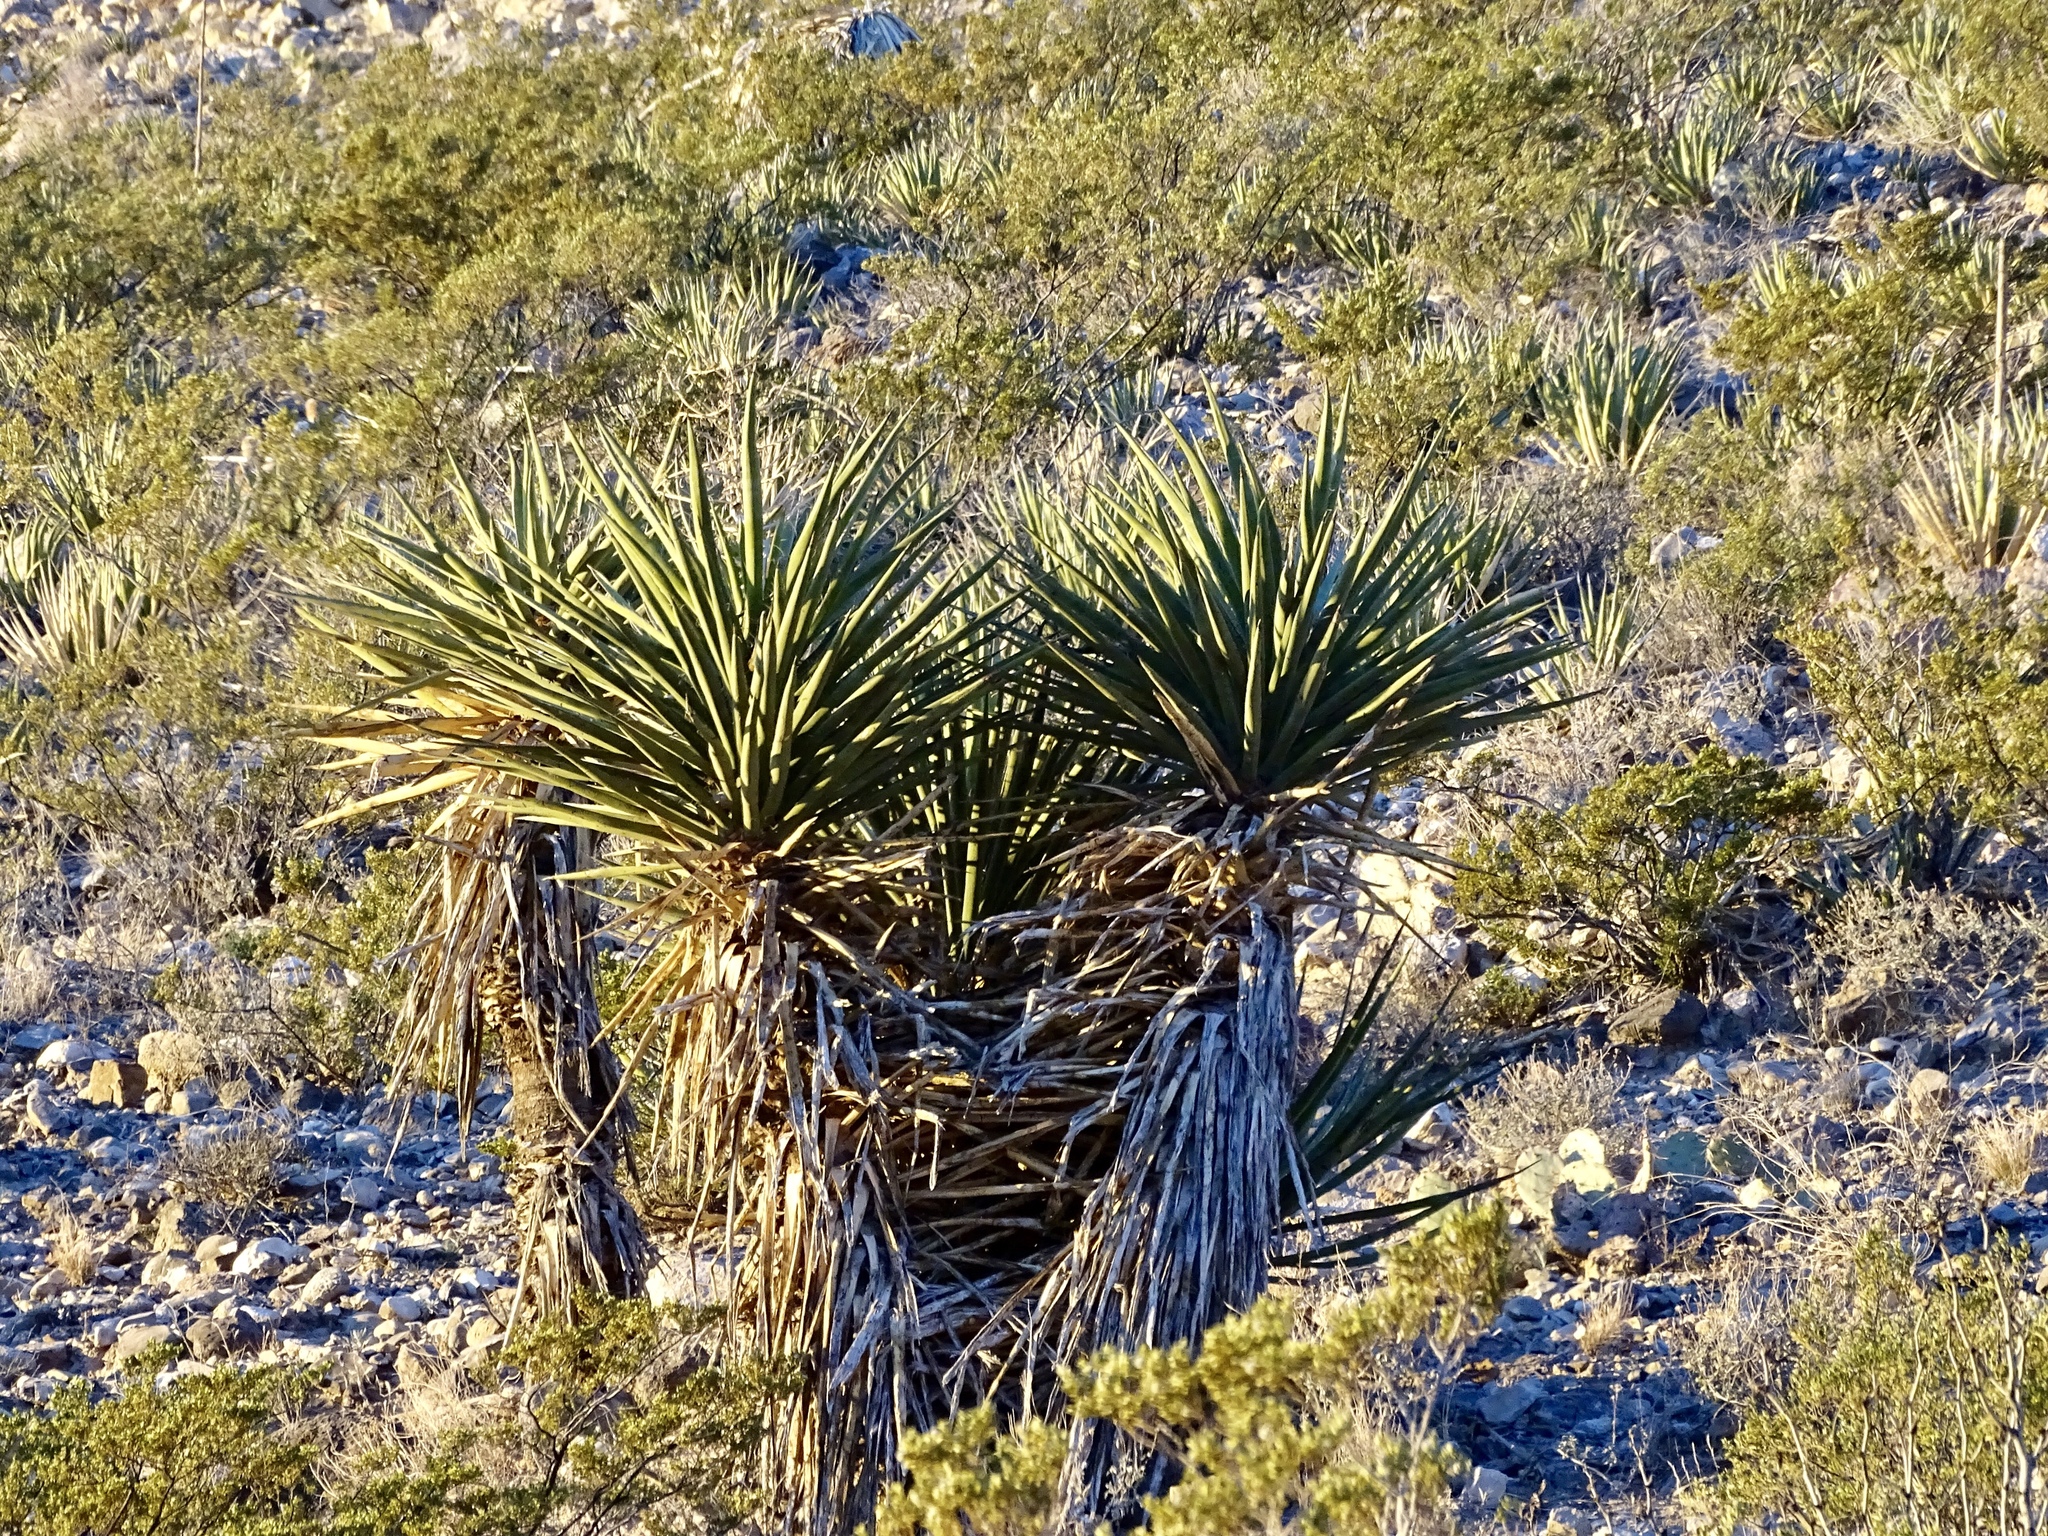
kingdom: Plantae
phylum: Tracheophyta
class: Liliopsida
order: Asparagales
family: Asparagaceae
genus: Yucca
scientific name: Yucca treculiana
